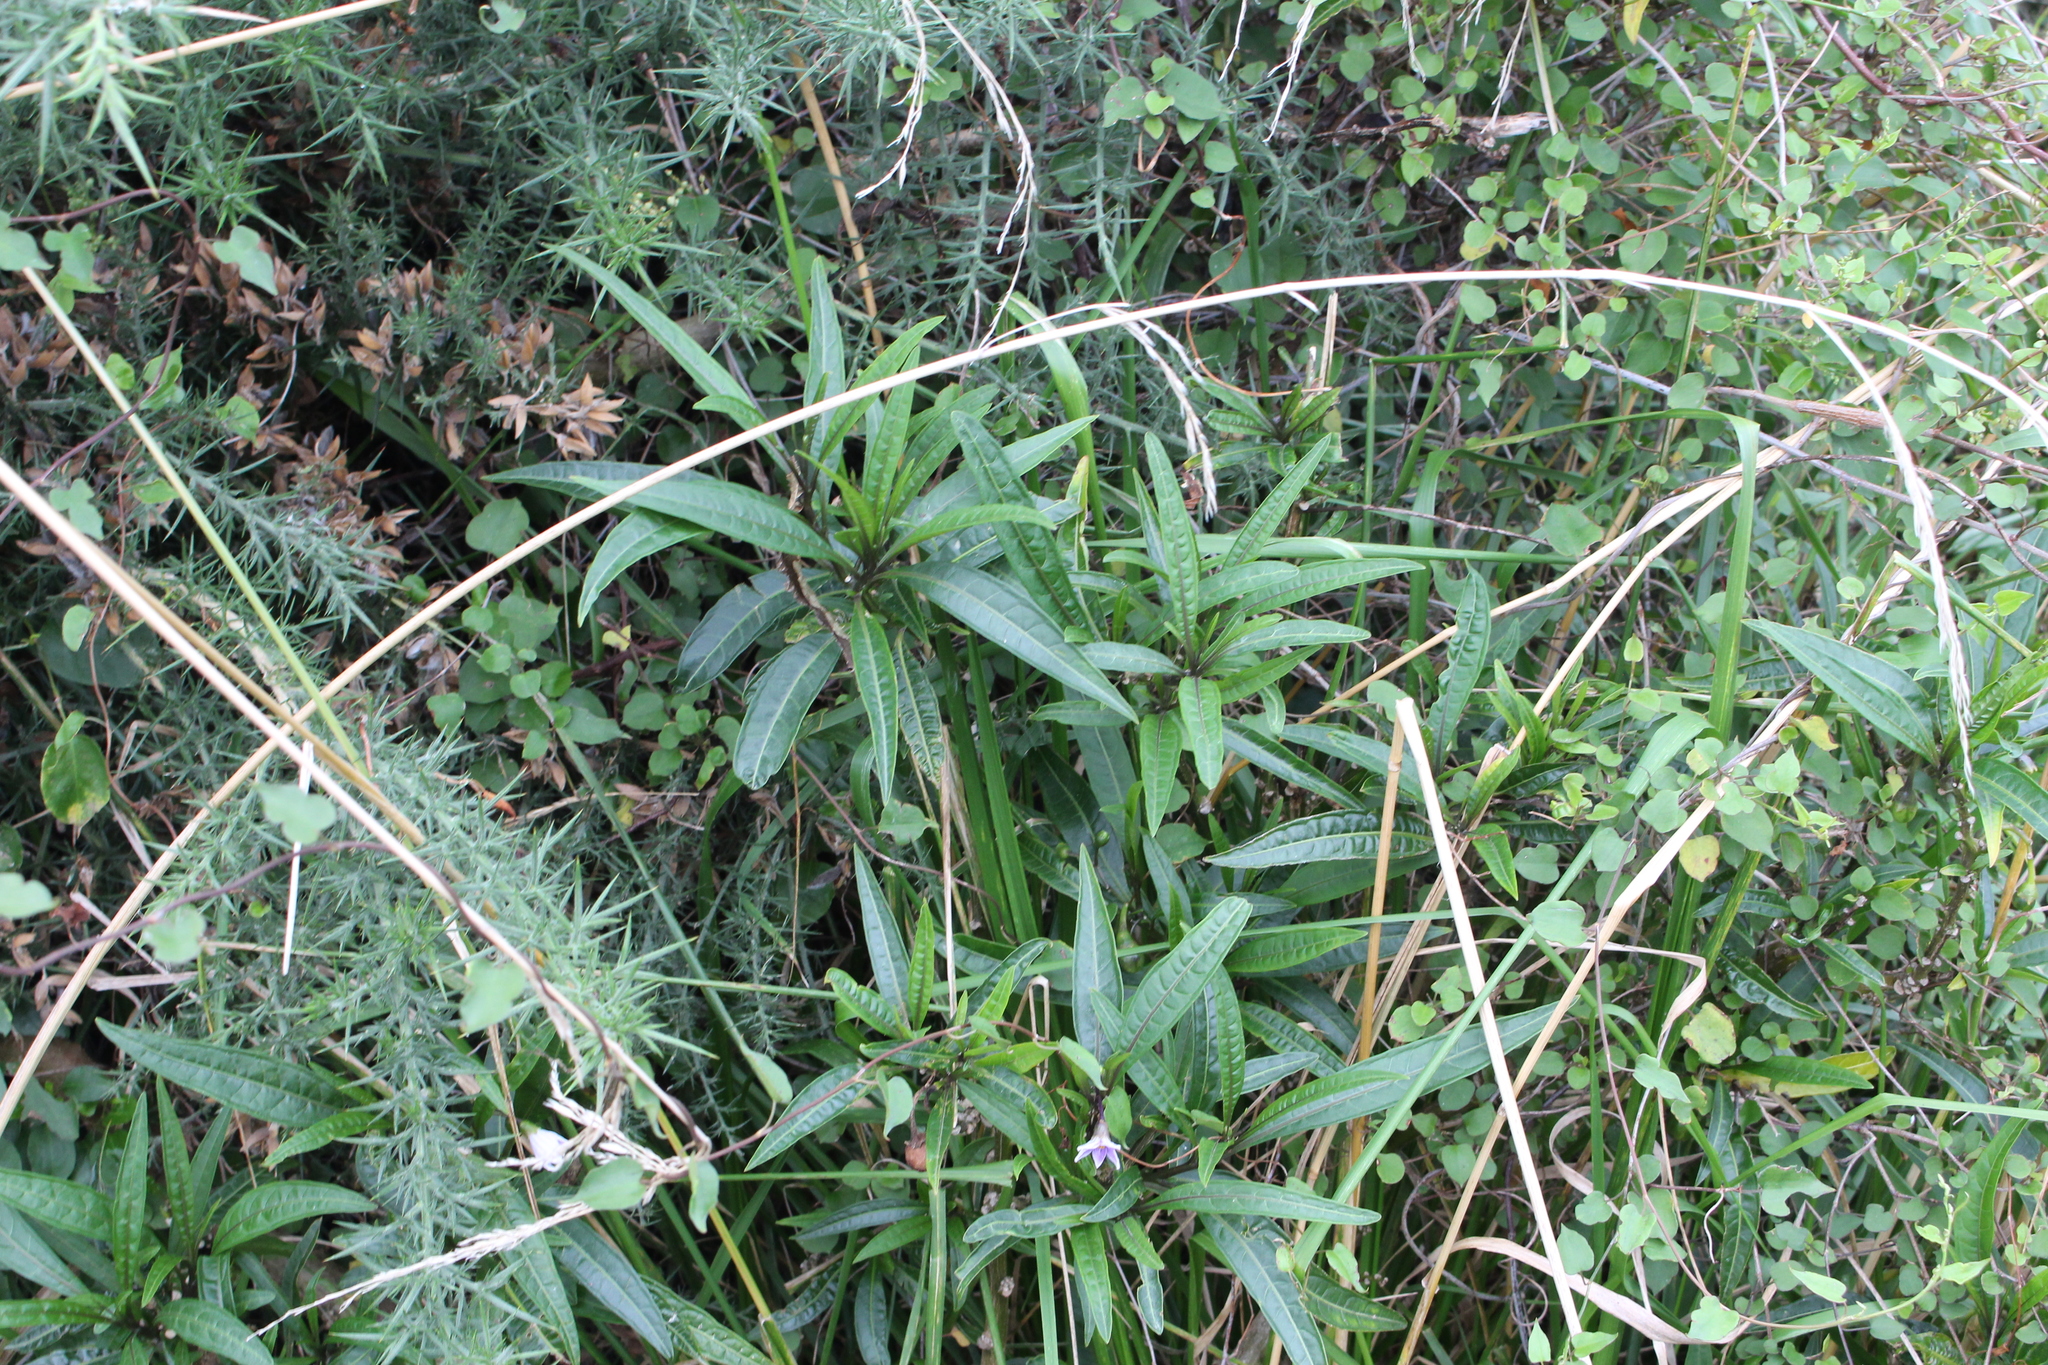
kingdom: Plantae
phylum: Tracheophyta
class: Magnoliopsida
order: Solanales
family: Solanaceae
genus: Solanum
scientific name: Solanum aviculare
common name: New zealand nightshade
